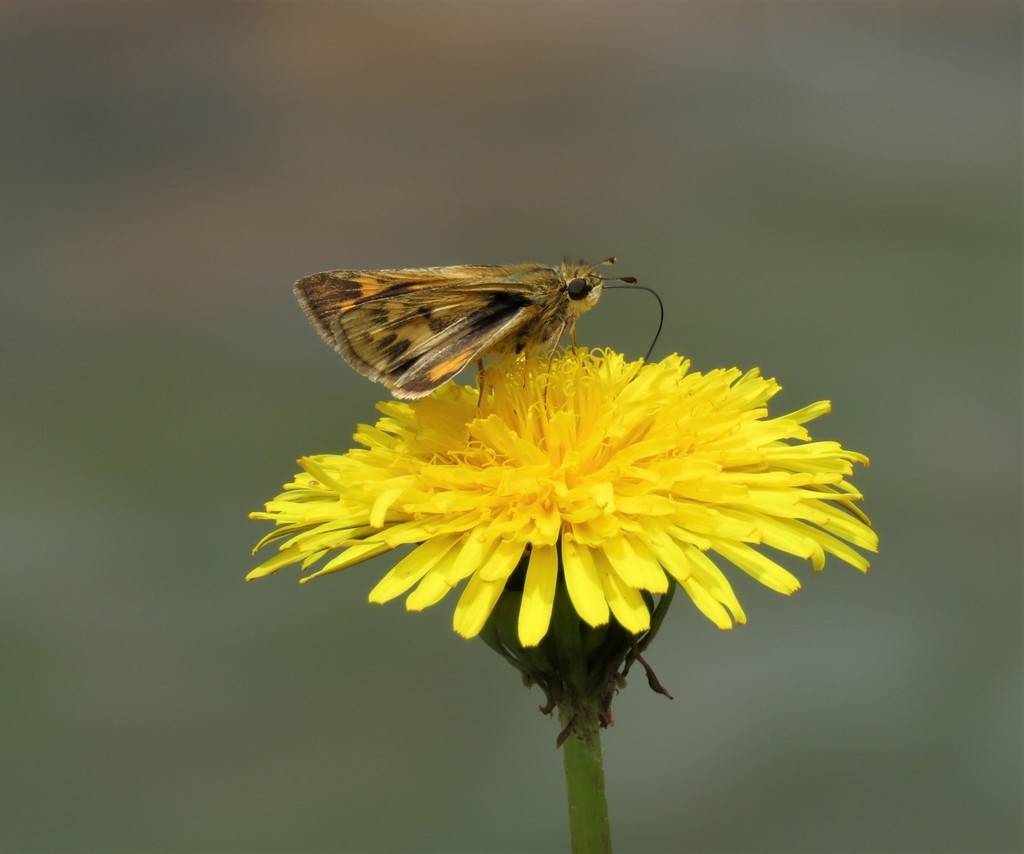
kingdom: Plantae
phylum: Tracheophyta
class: Magnoliopsida
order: Asterales
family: Asteraceae
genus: Taraxacum
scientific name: Taraxacum officinale
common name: Common dandelion
